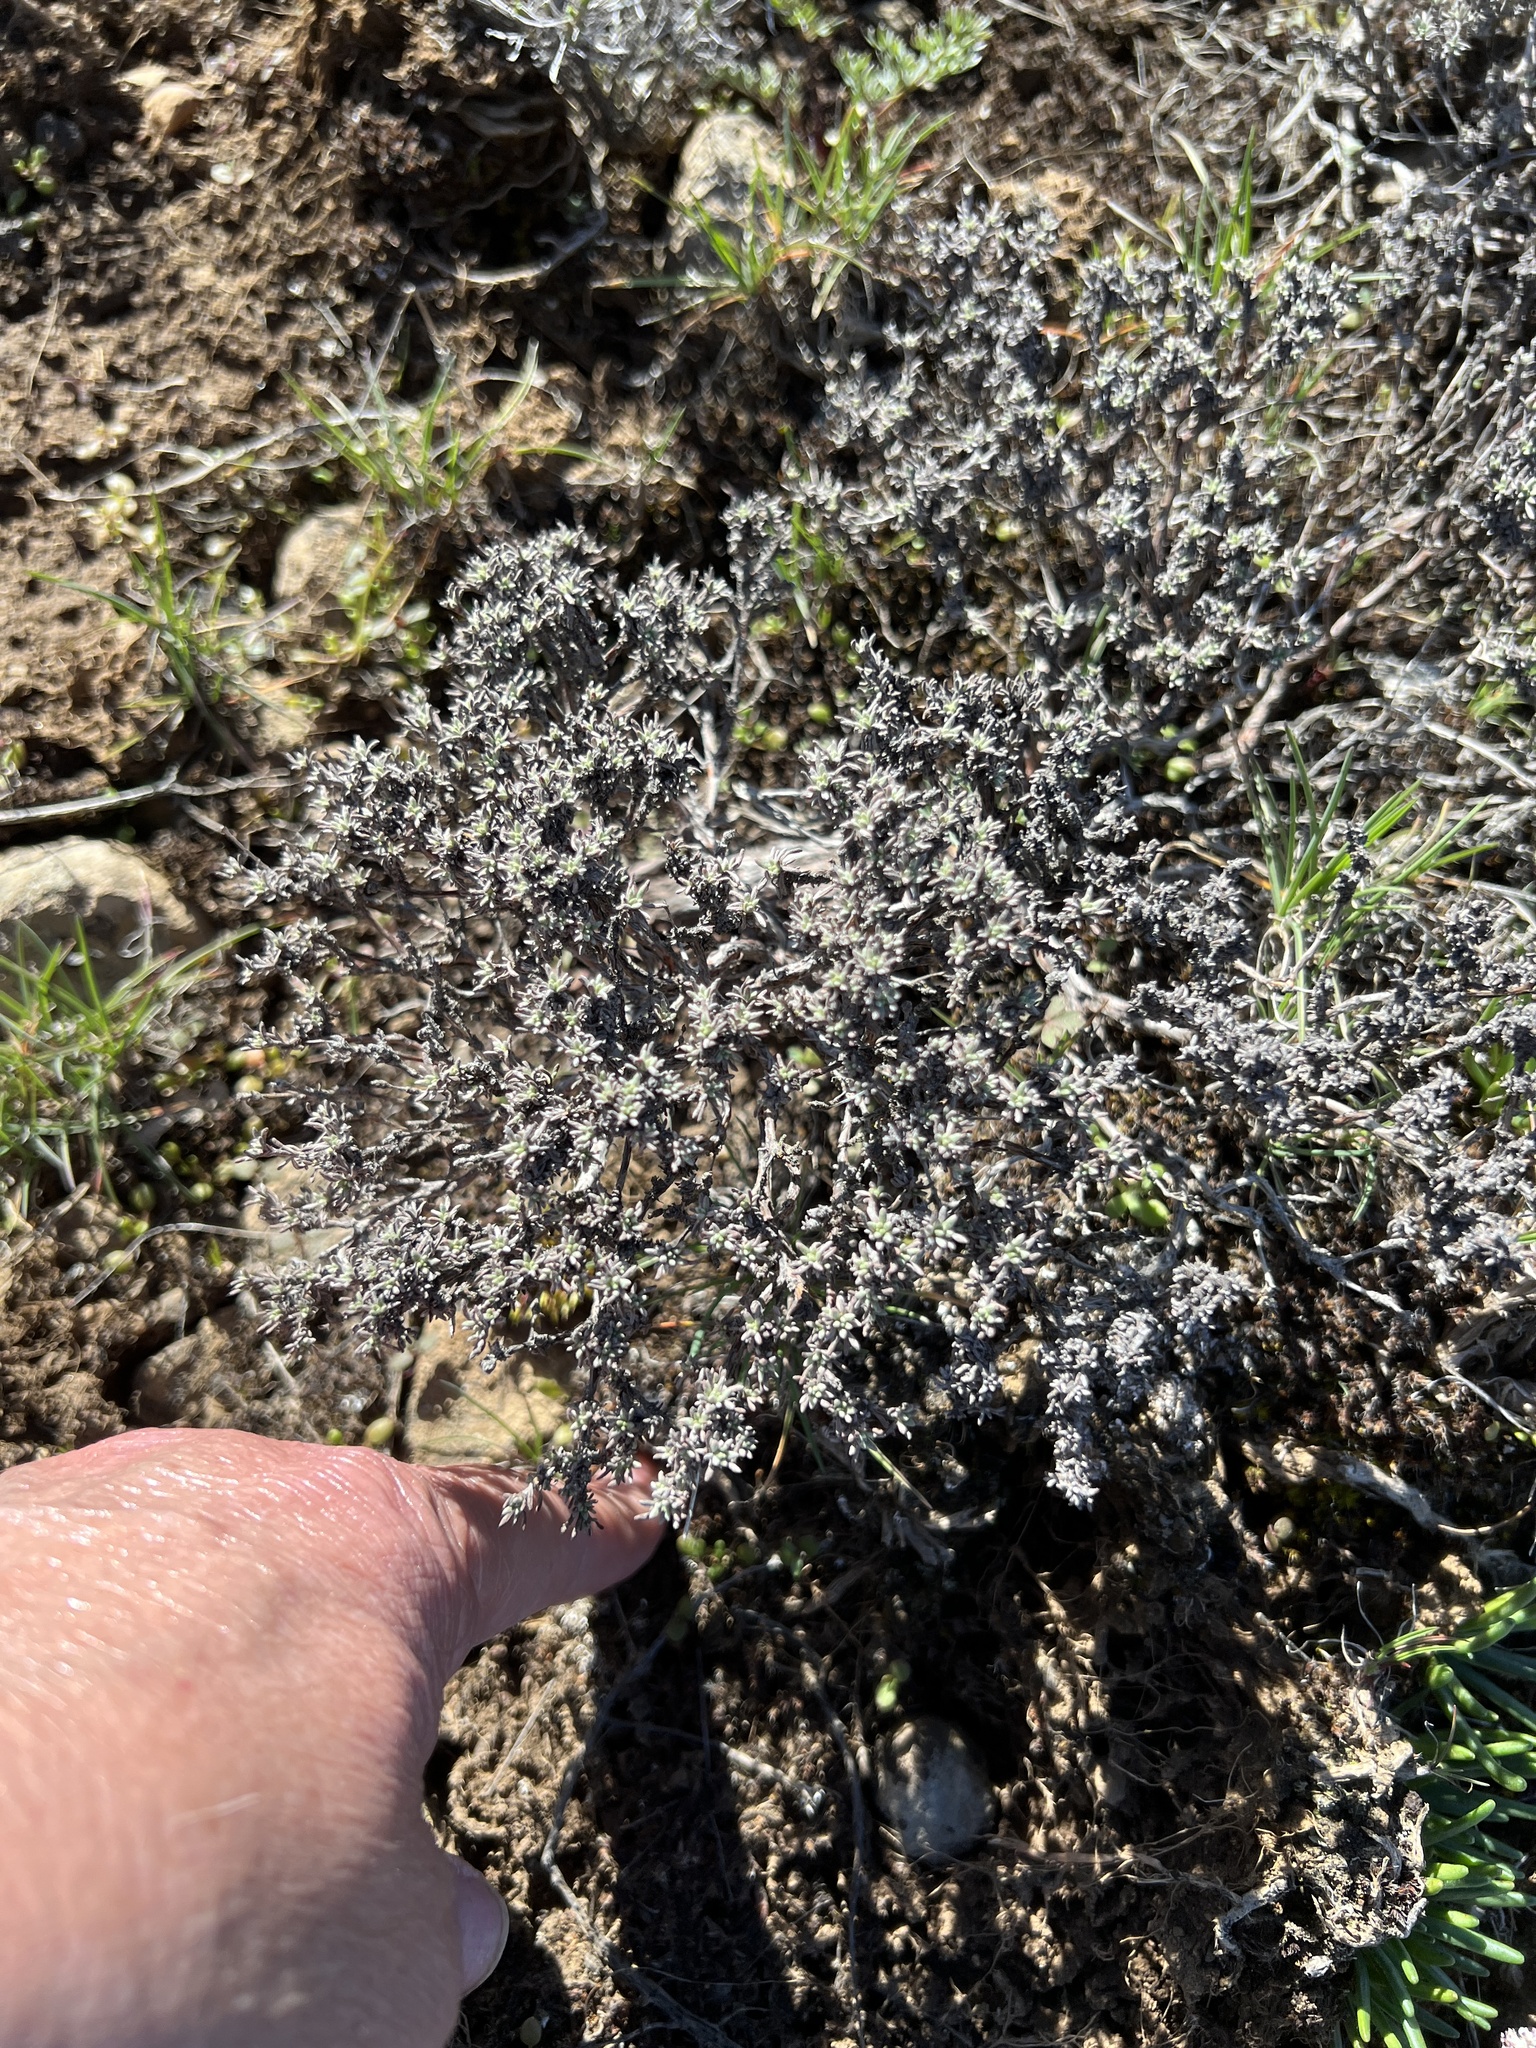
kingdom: Plantae
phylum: Tracheophyta
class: Magnoliopsida
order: Caryophyllales
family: Polygonaceae
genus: Eriogonum
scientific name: Eriogonum thymoides
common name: Thyme-leaf wild buckwheat
